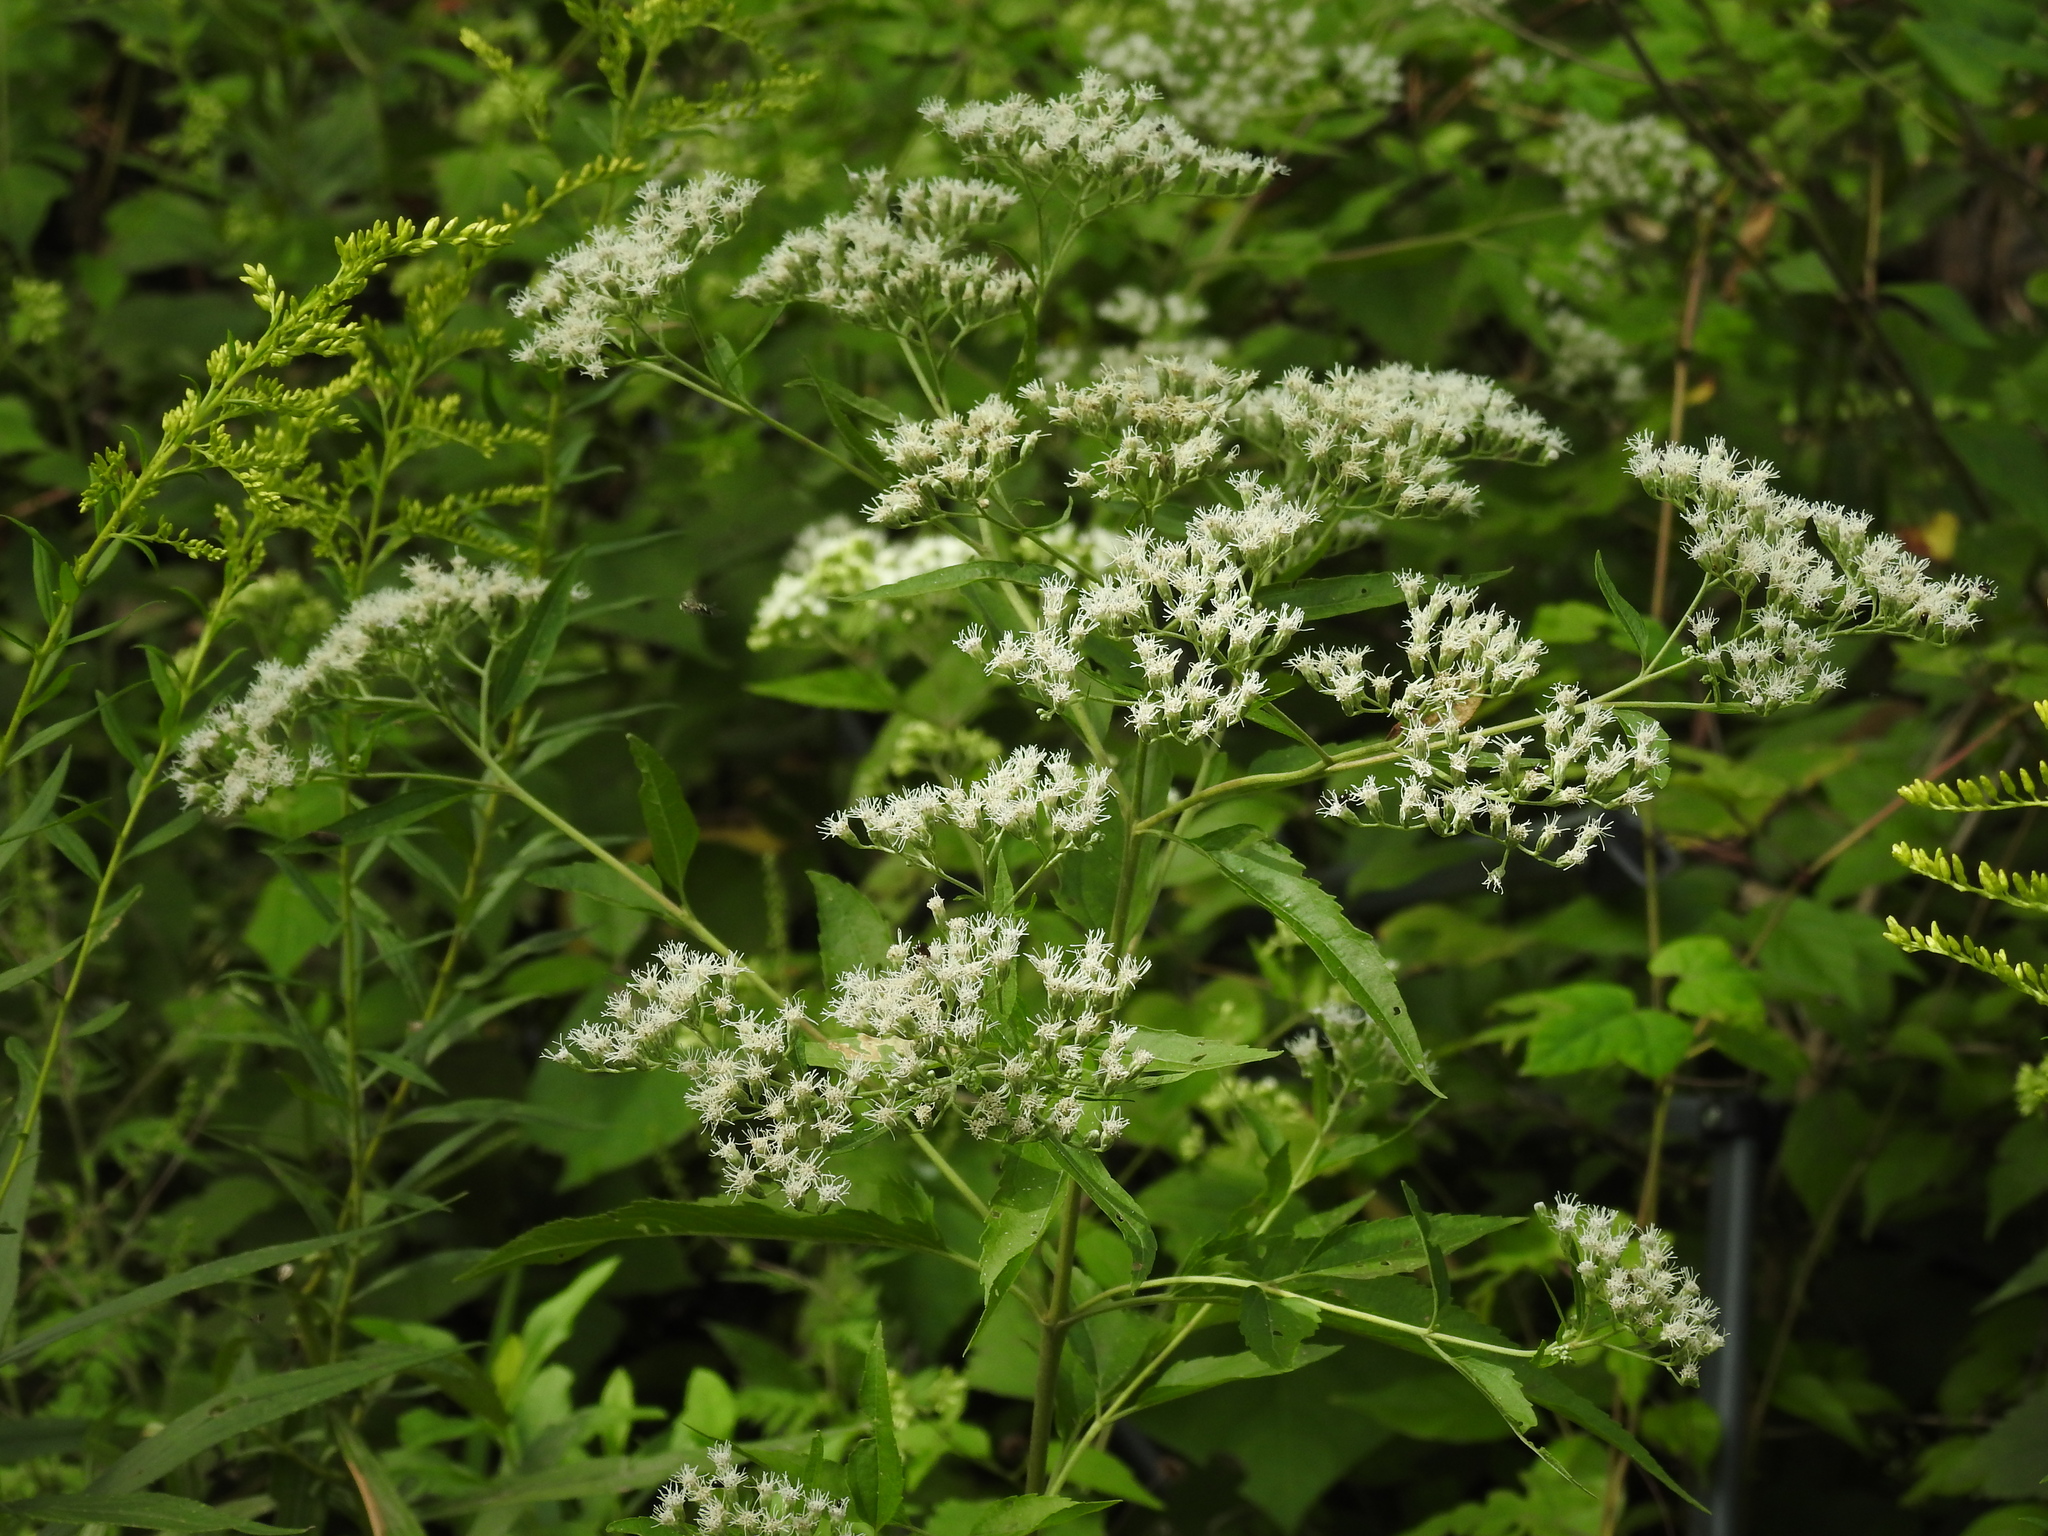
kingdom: Plantae
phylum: Tracheophyta
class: Magnoliopsida
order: Asterales
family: Asteraceae
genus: Eupatorium
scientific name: Eupatorium serotinum
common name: Late boneset
